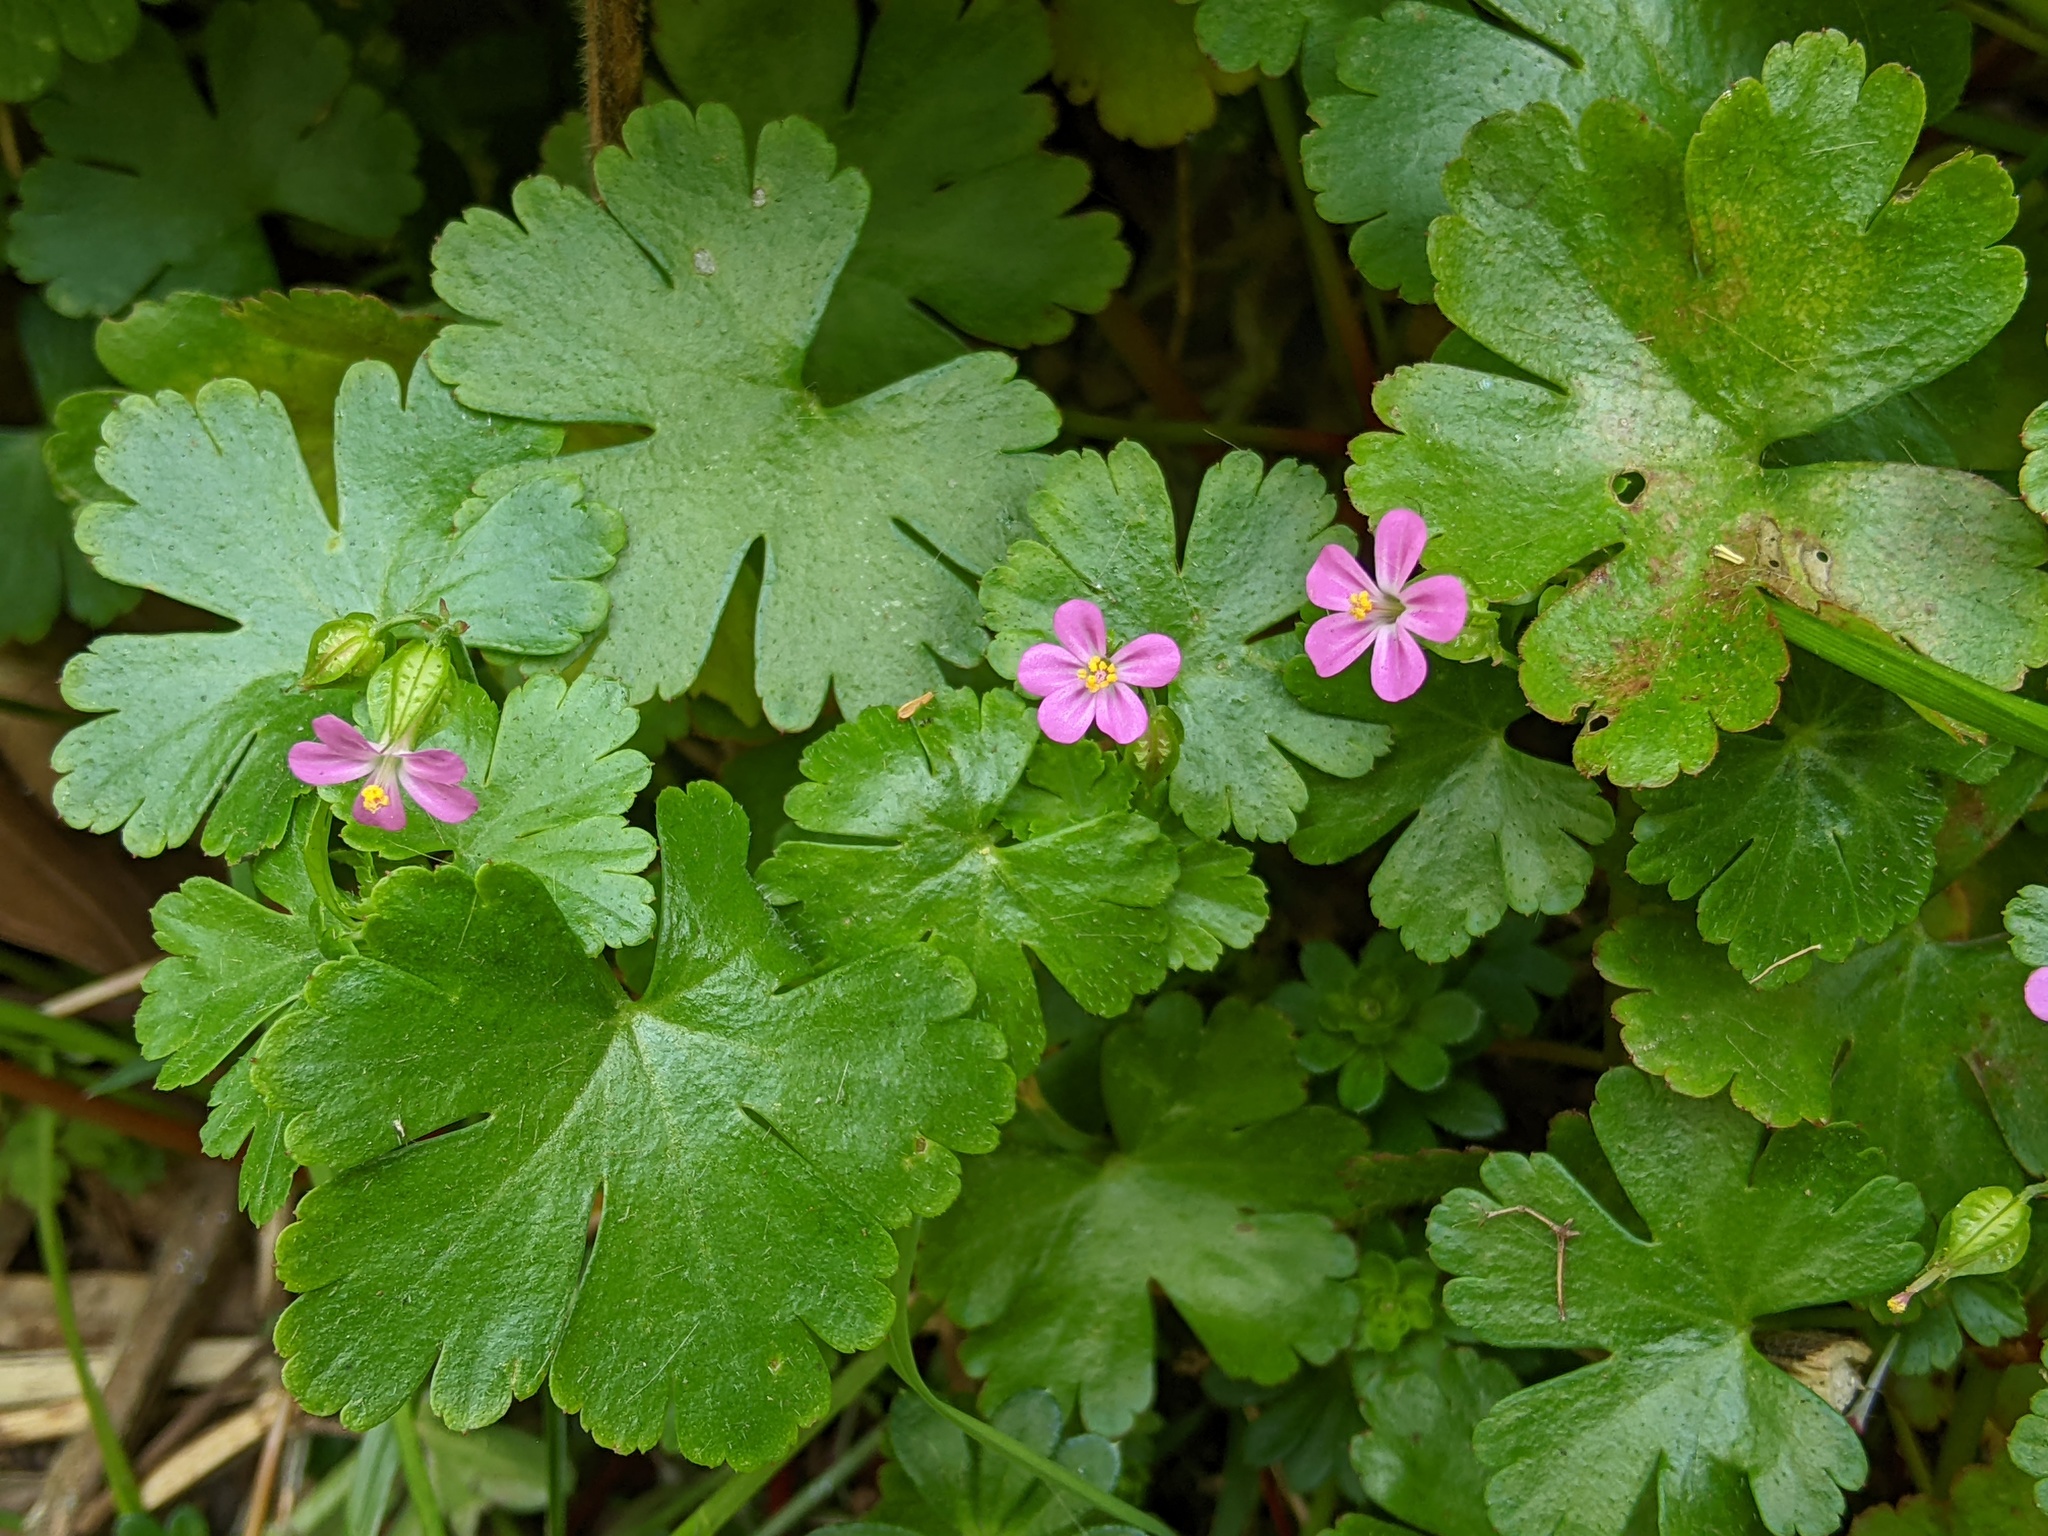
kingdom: Plantae
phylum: Tracheophyta
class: Magnoliopsida
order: Geraniales
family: Geraniaceae
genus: Geranium
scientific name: Geranium lucidum
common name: Shining crane's-bill
